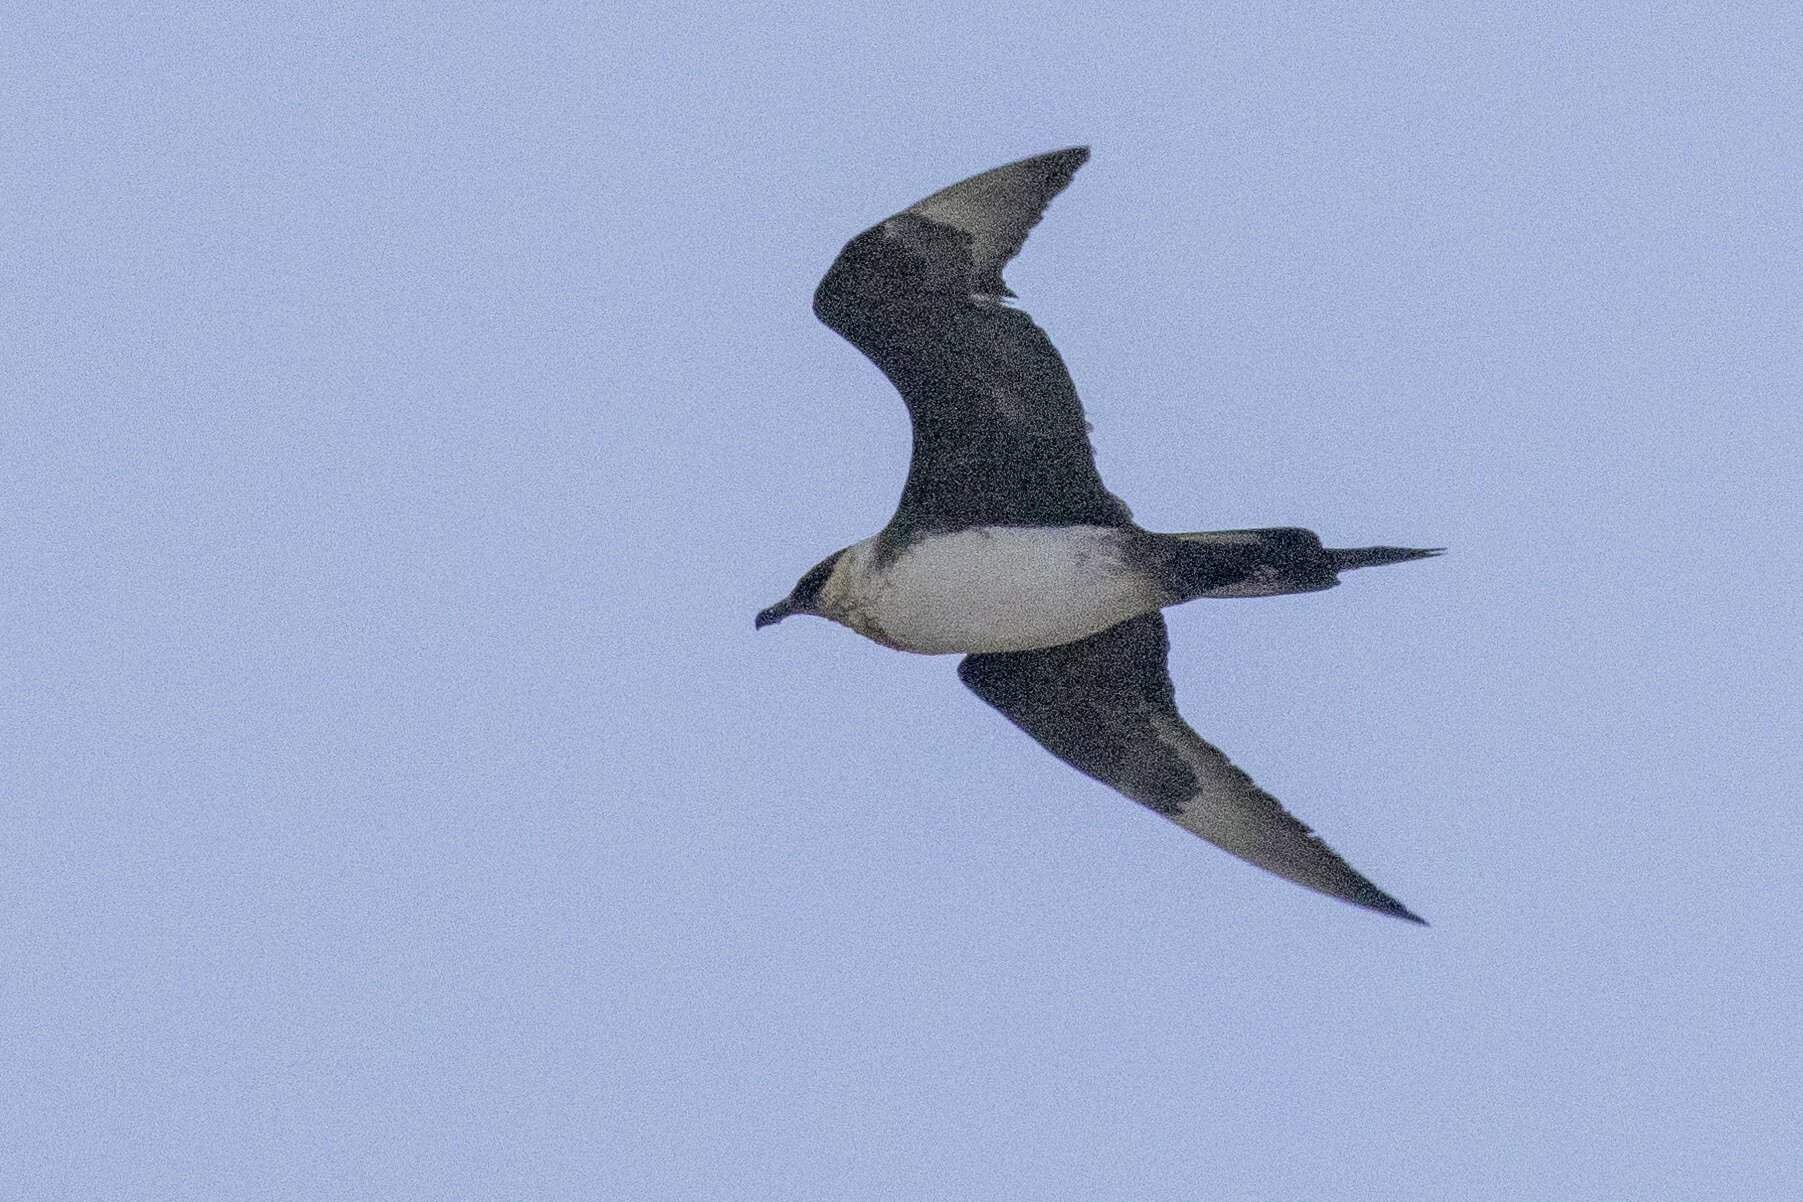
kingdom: Animalia
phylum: Chordata
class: Aves
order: Charadriiformes
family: Stercorariidae
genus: Stercorarius
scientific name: Stercorarius parasiticus
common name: Parasitic jaeger
